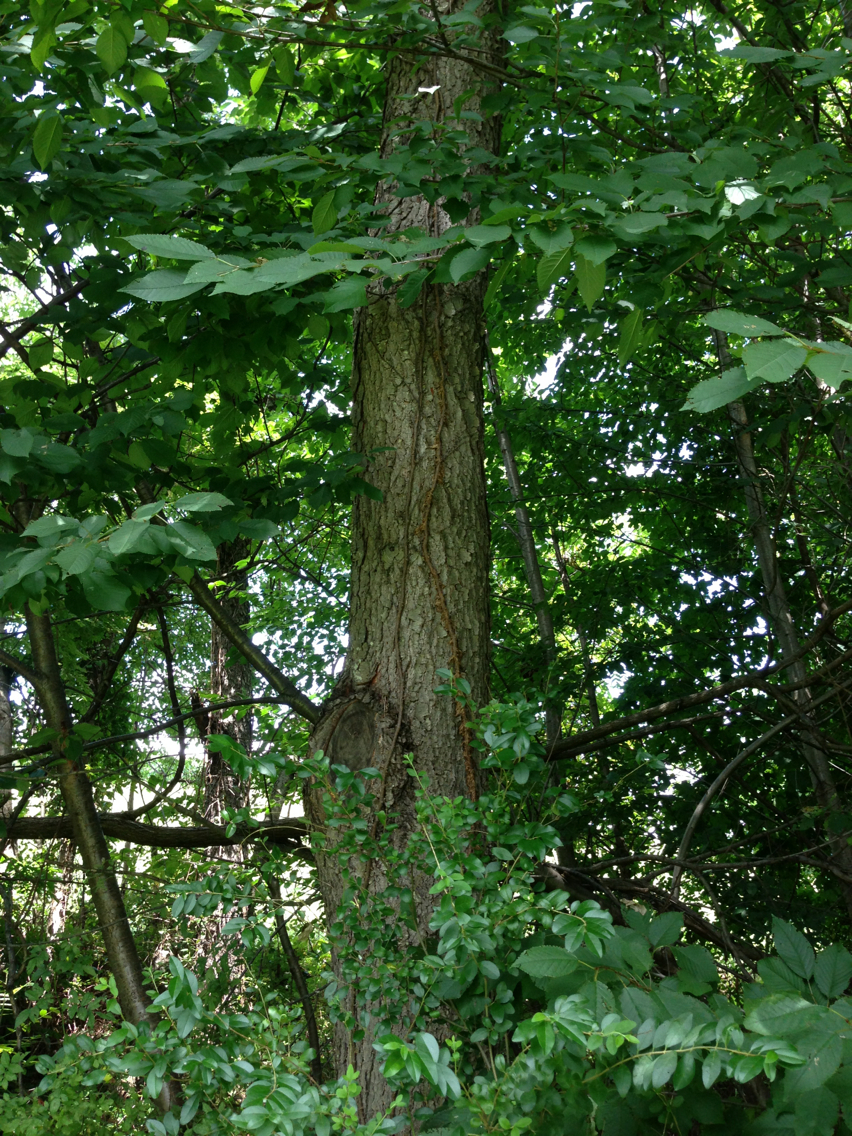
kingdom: Plantae
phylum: Tracheophyta
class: Magnoliopsida
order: Rosales
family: Rosaceae
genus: Prunus
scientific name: Prunus serotina
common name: Black cherry
